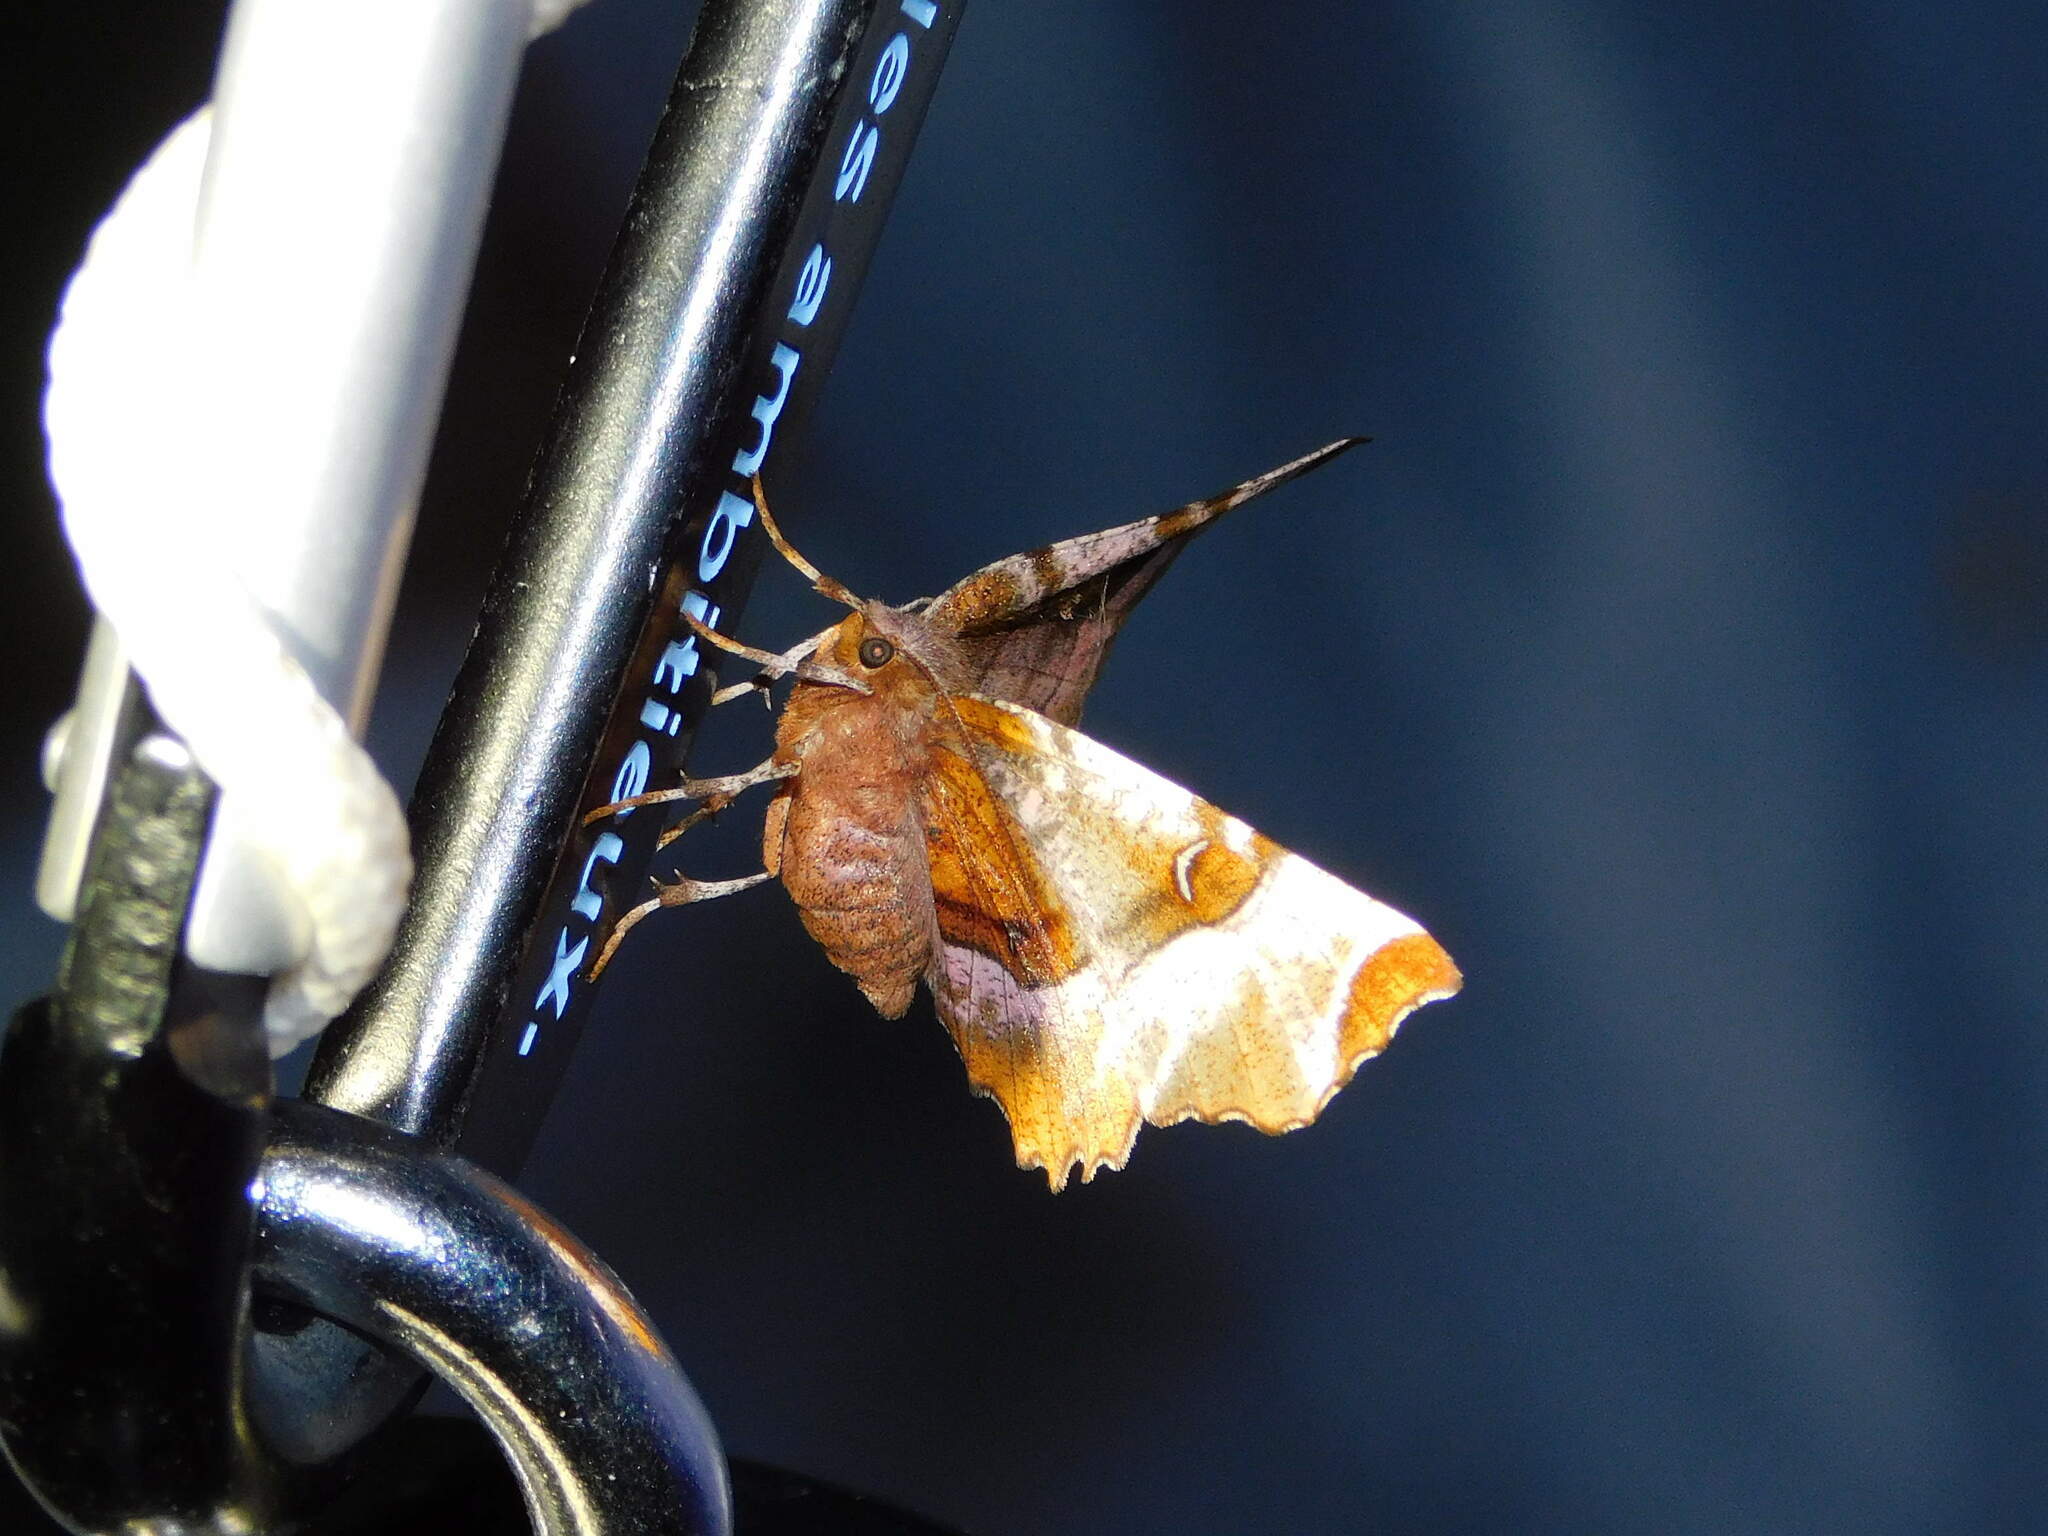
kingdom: Animalia
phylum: Arthropoda
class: Insecta
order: Lepidoptera
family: Geometridae
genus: Selenia
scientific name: Selenia tetralunaria
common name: Purple thorn
